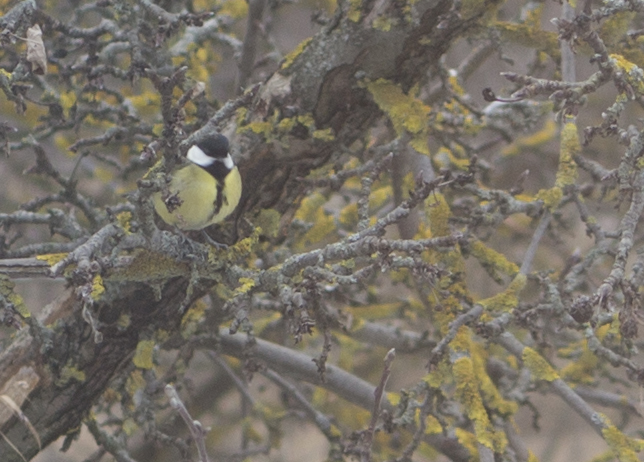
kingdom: Animalia
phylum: Chordata
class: Aves
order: Passeriformes
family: Paridae
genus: Parus
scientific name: Parus major
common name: Great tit
